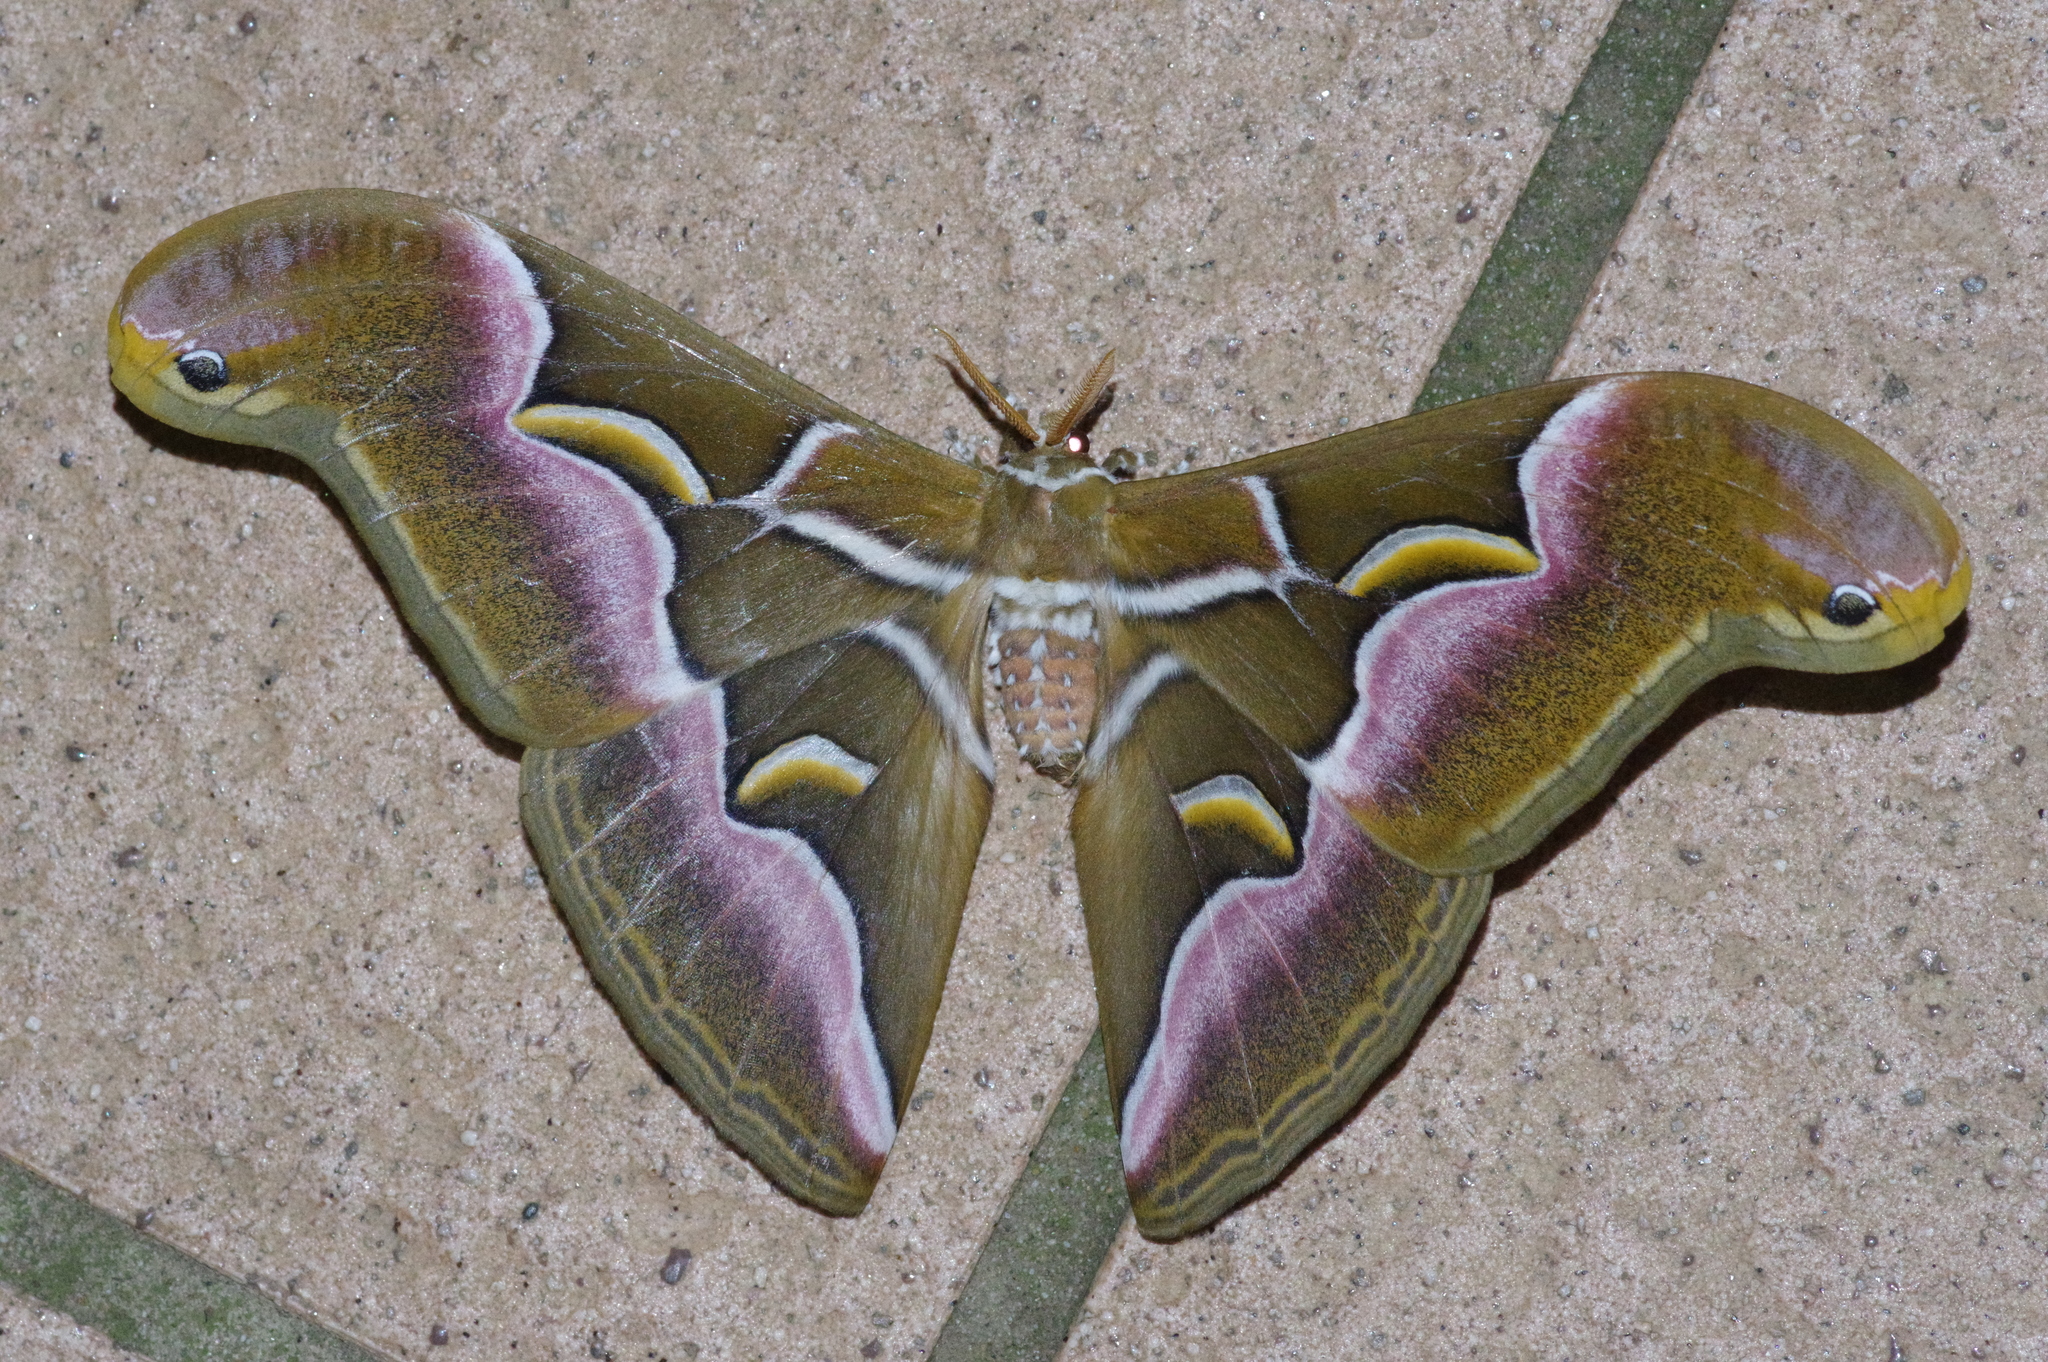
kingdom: Animalia
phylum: Arthropoda
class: Insecta
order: Lepidoptera
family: Saturniidae
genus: Samia
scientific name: Samia cynthia
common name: Ailanthus silkmoth
